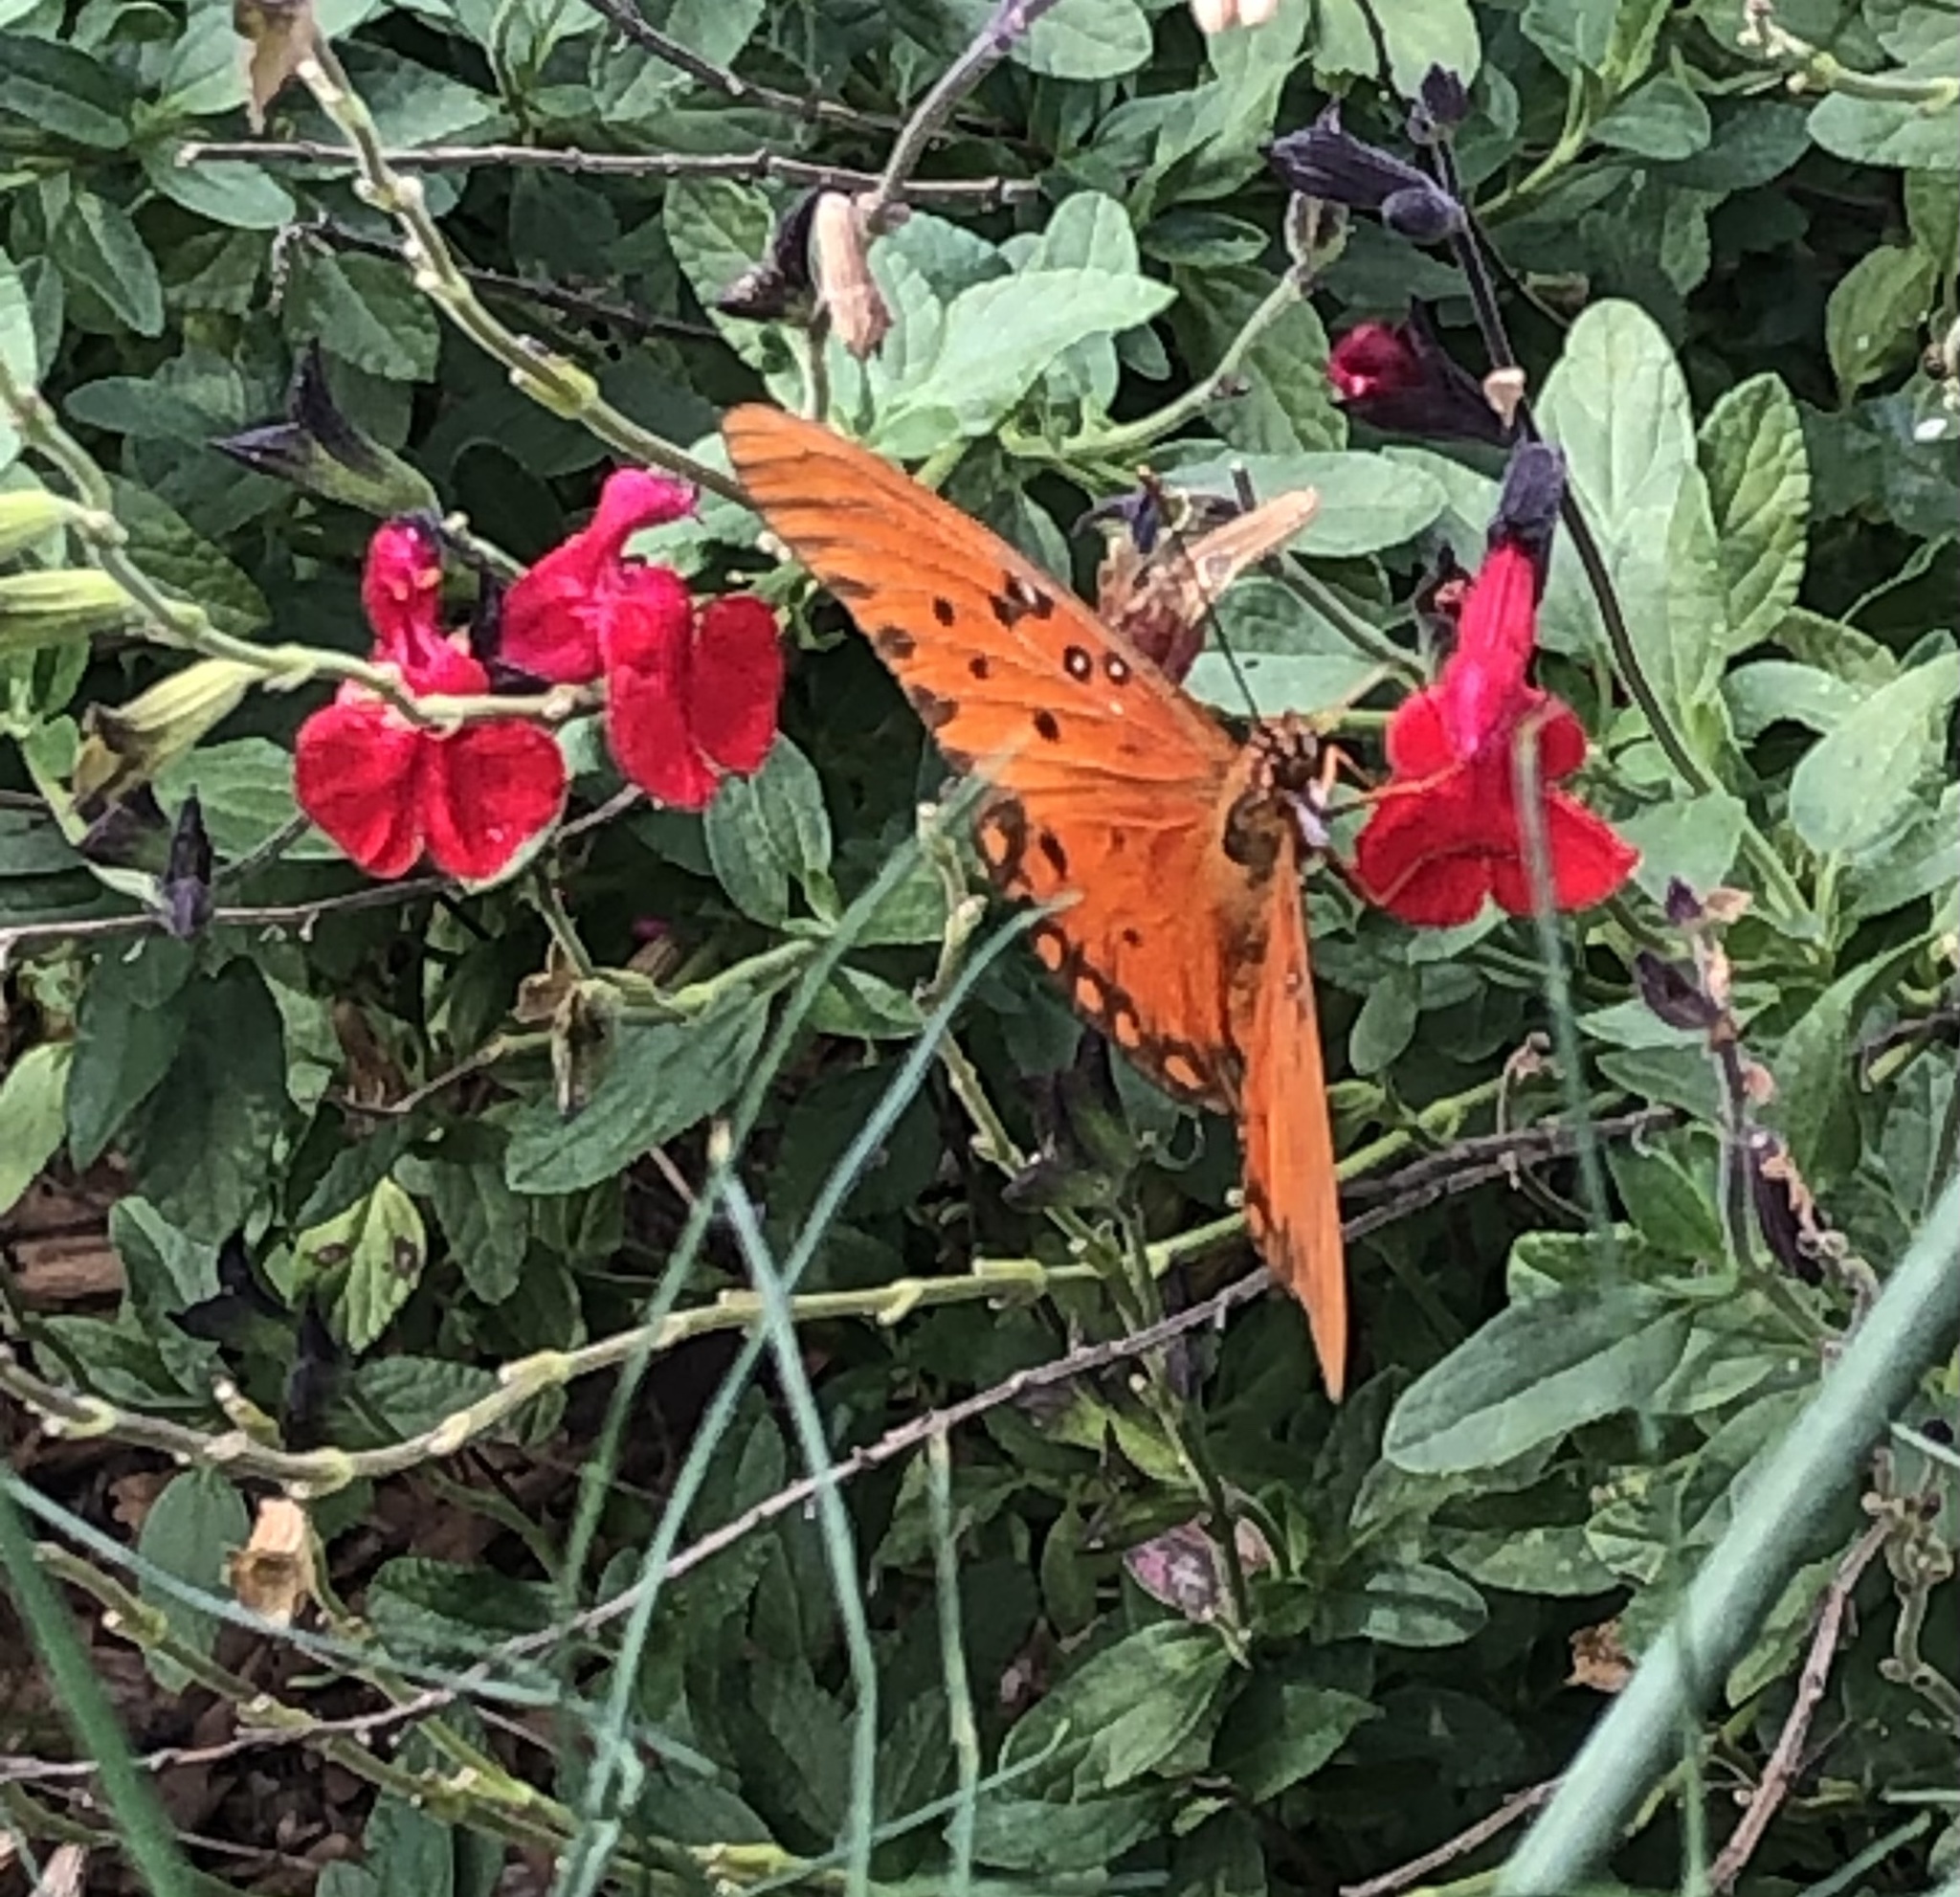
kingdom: Animalia
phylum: Arthropoda
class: Insecta
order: Lepidoptera
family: Nymphalidae
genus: Dione
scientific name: Dione vanillae
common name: Gulf fritillary
